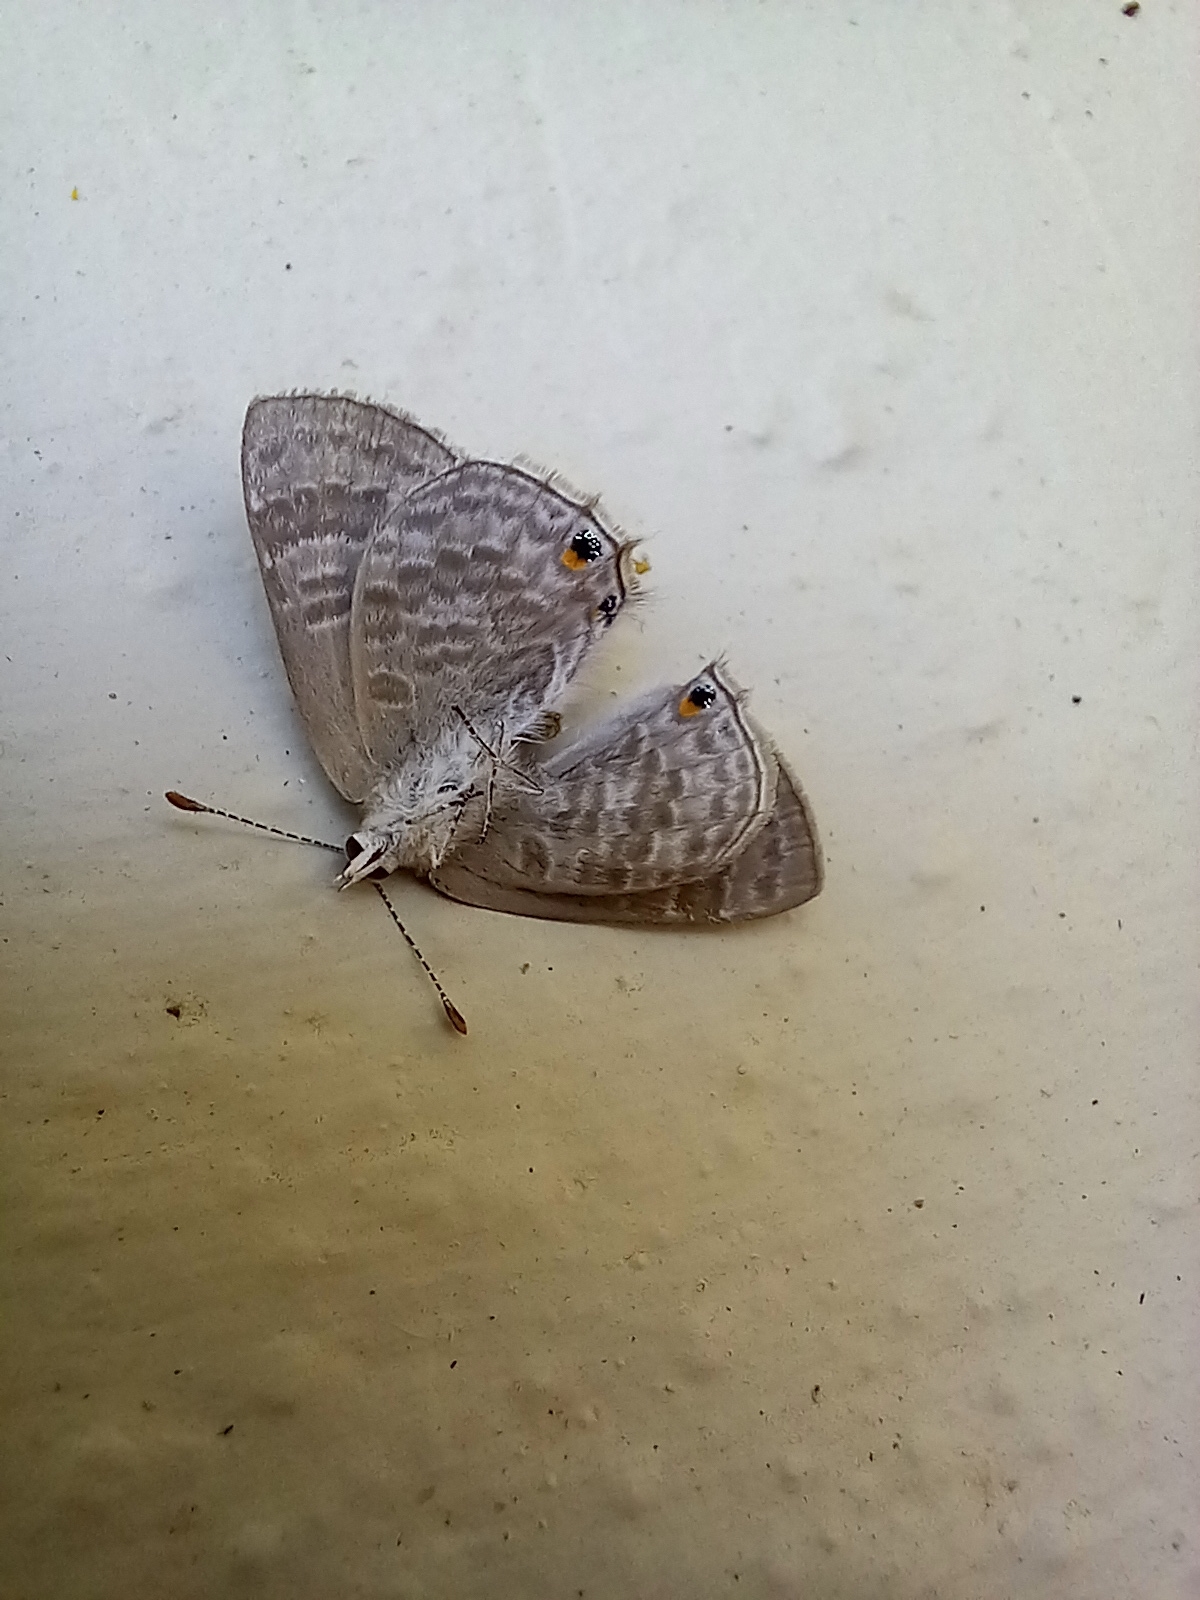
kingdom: Animalia
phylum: Arthropoda
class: Insecta
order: Lepidoptera
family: Lycaenidae
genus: Anthene
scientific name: Anthene definita
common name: Common ciliate blue
